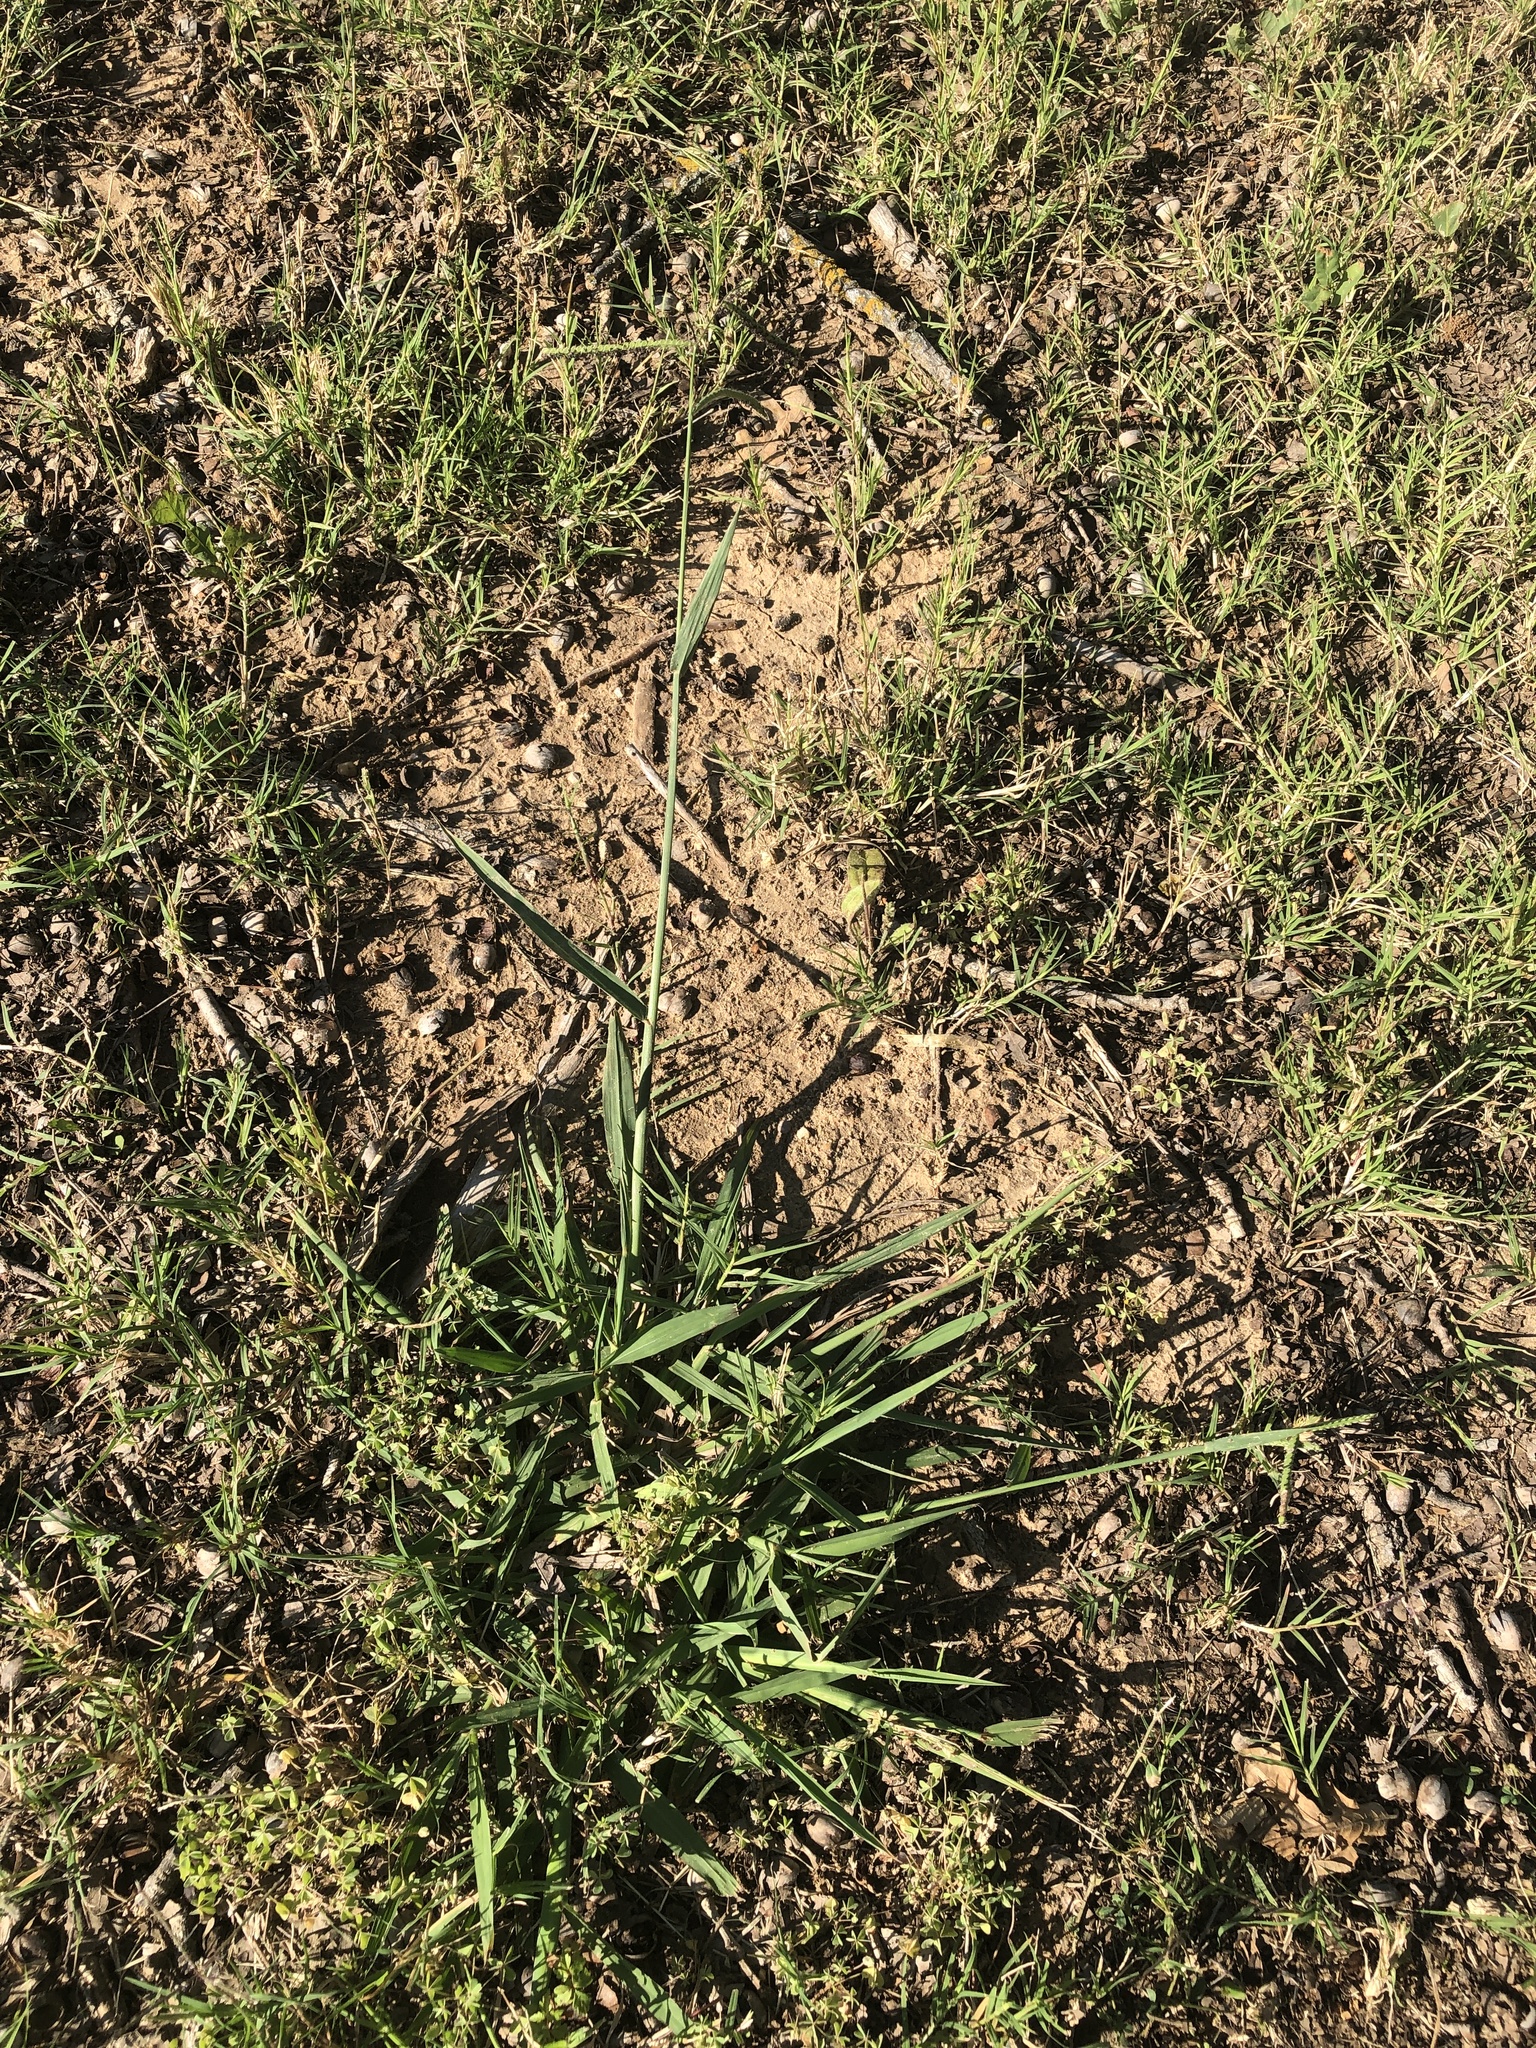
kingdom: Plantae
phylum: Tracheophyta
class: Liliopsida
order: Poales
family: Poaceae
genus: Paspalum
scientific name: Paspalum dilatatum
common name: Dallisgrass
